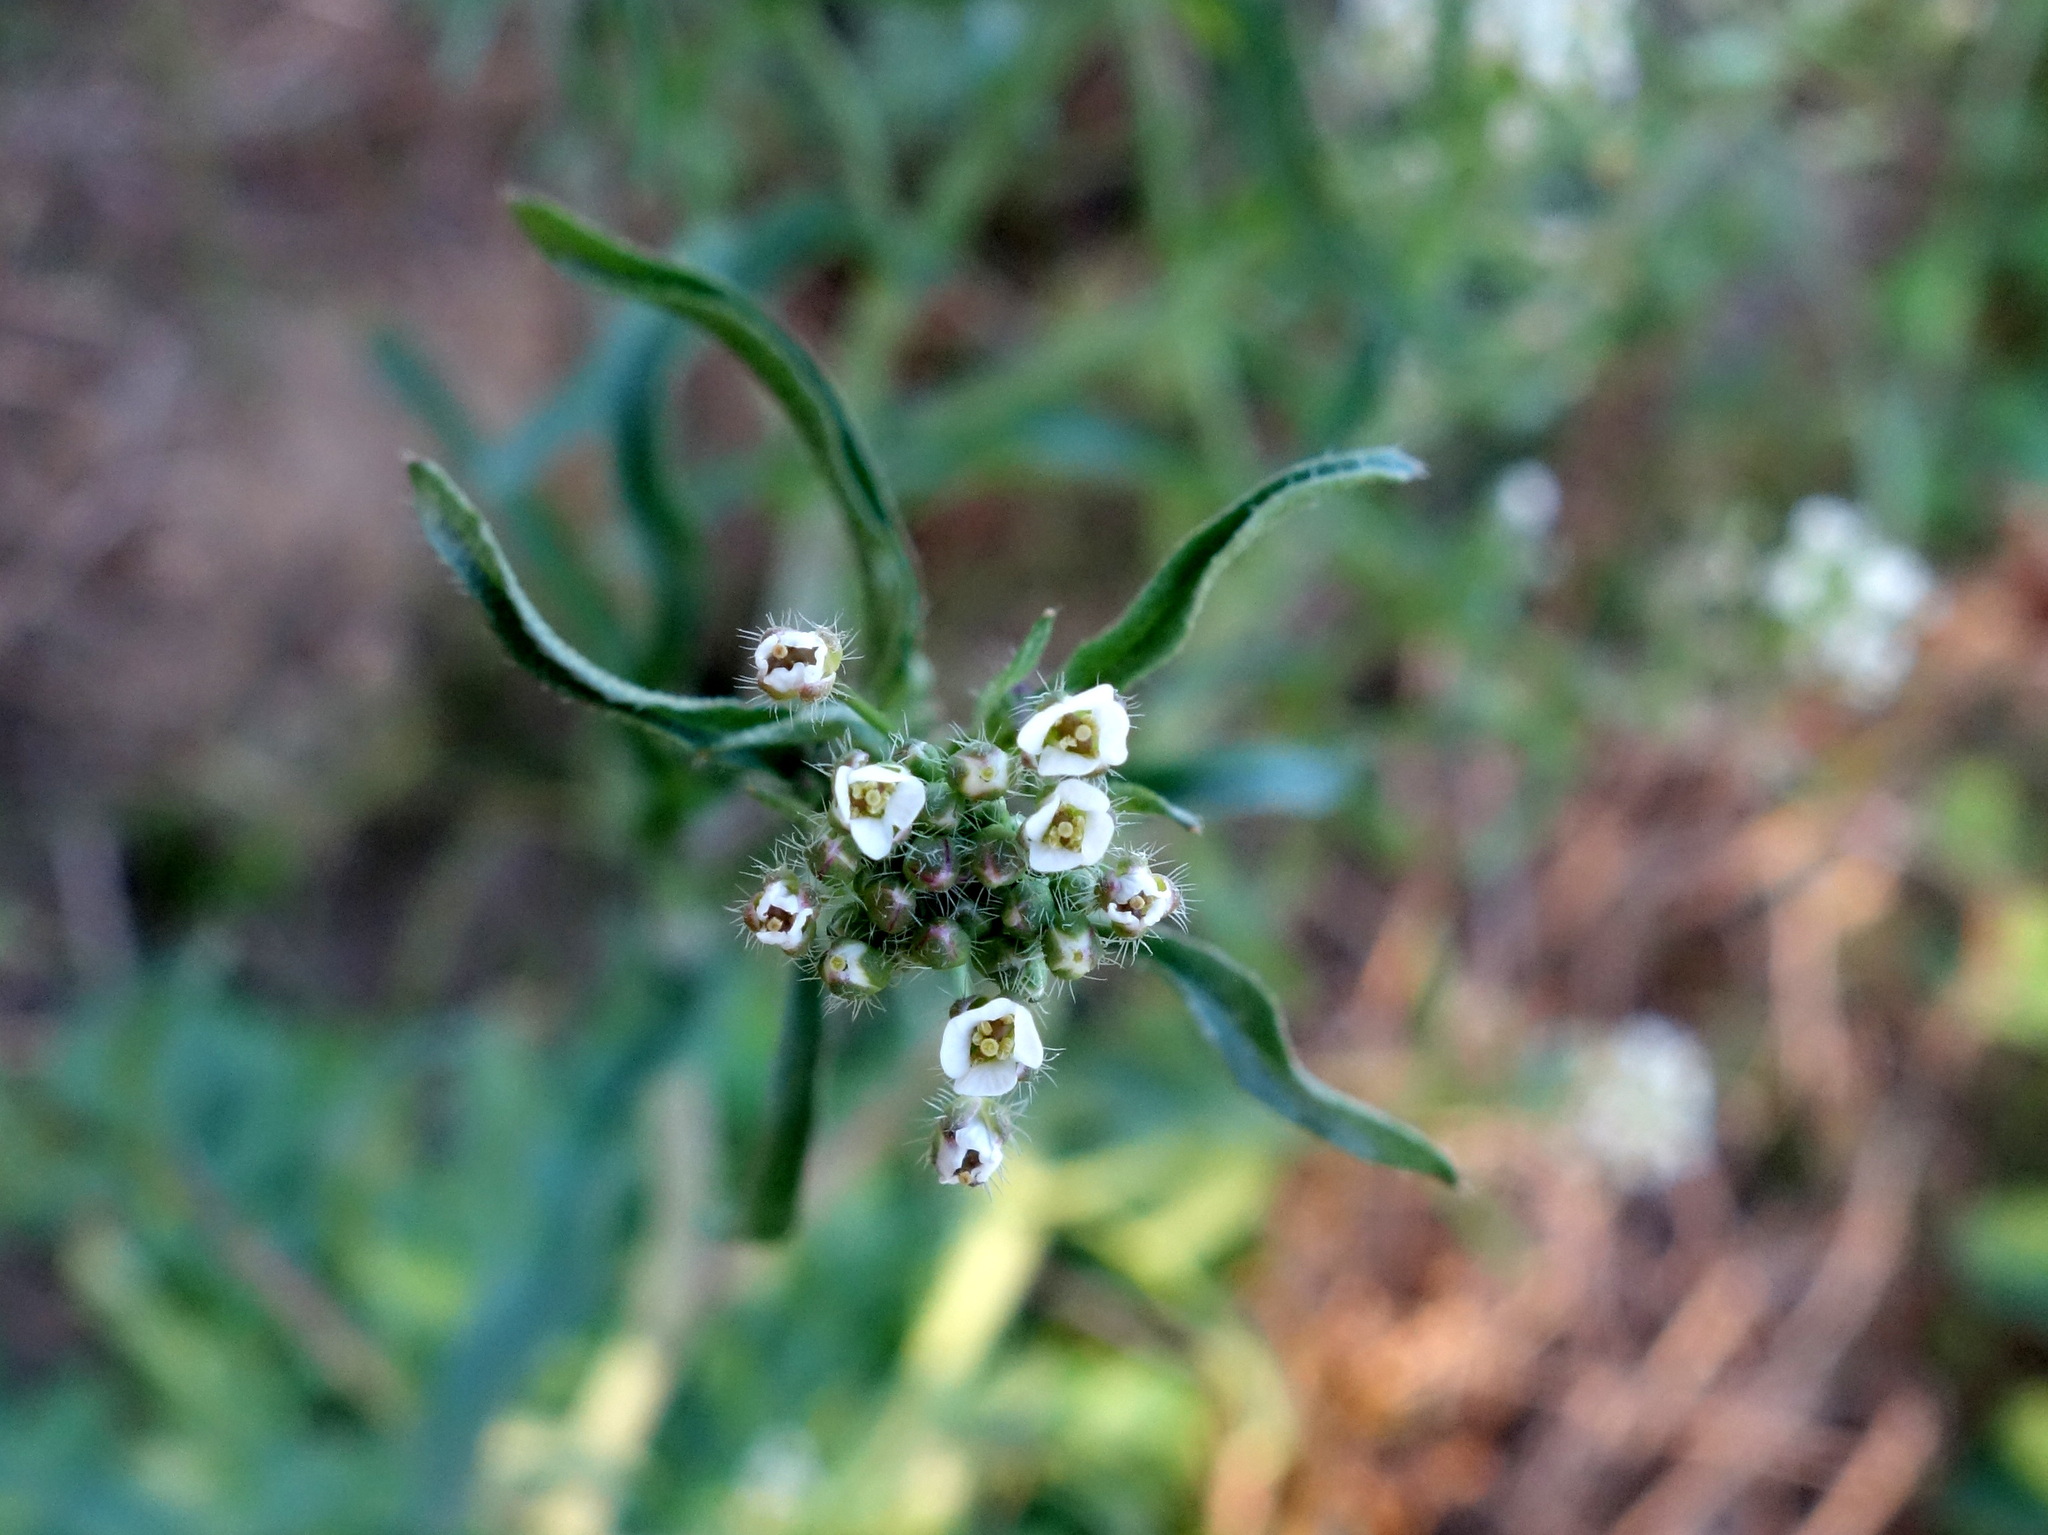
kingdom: Plantae
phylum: Tracheophyta
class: Magnoliopsida
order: Brassicales
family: Brassicaceae
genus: Capsella
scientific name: Capsella bursa-pastoris
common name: Shepherd's purse
